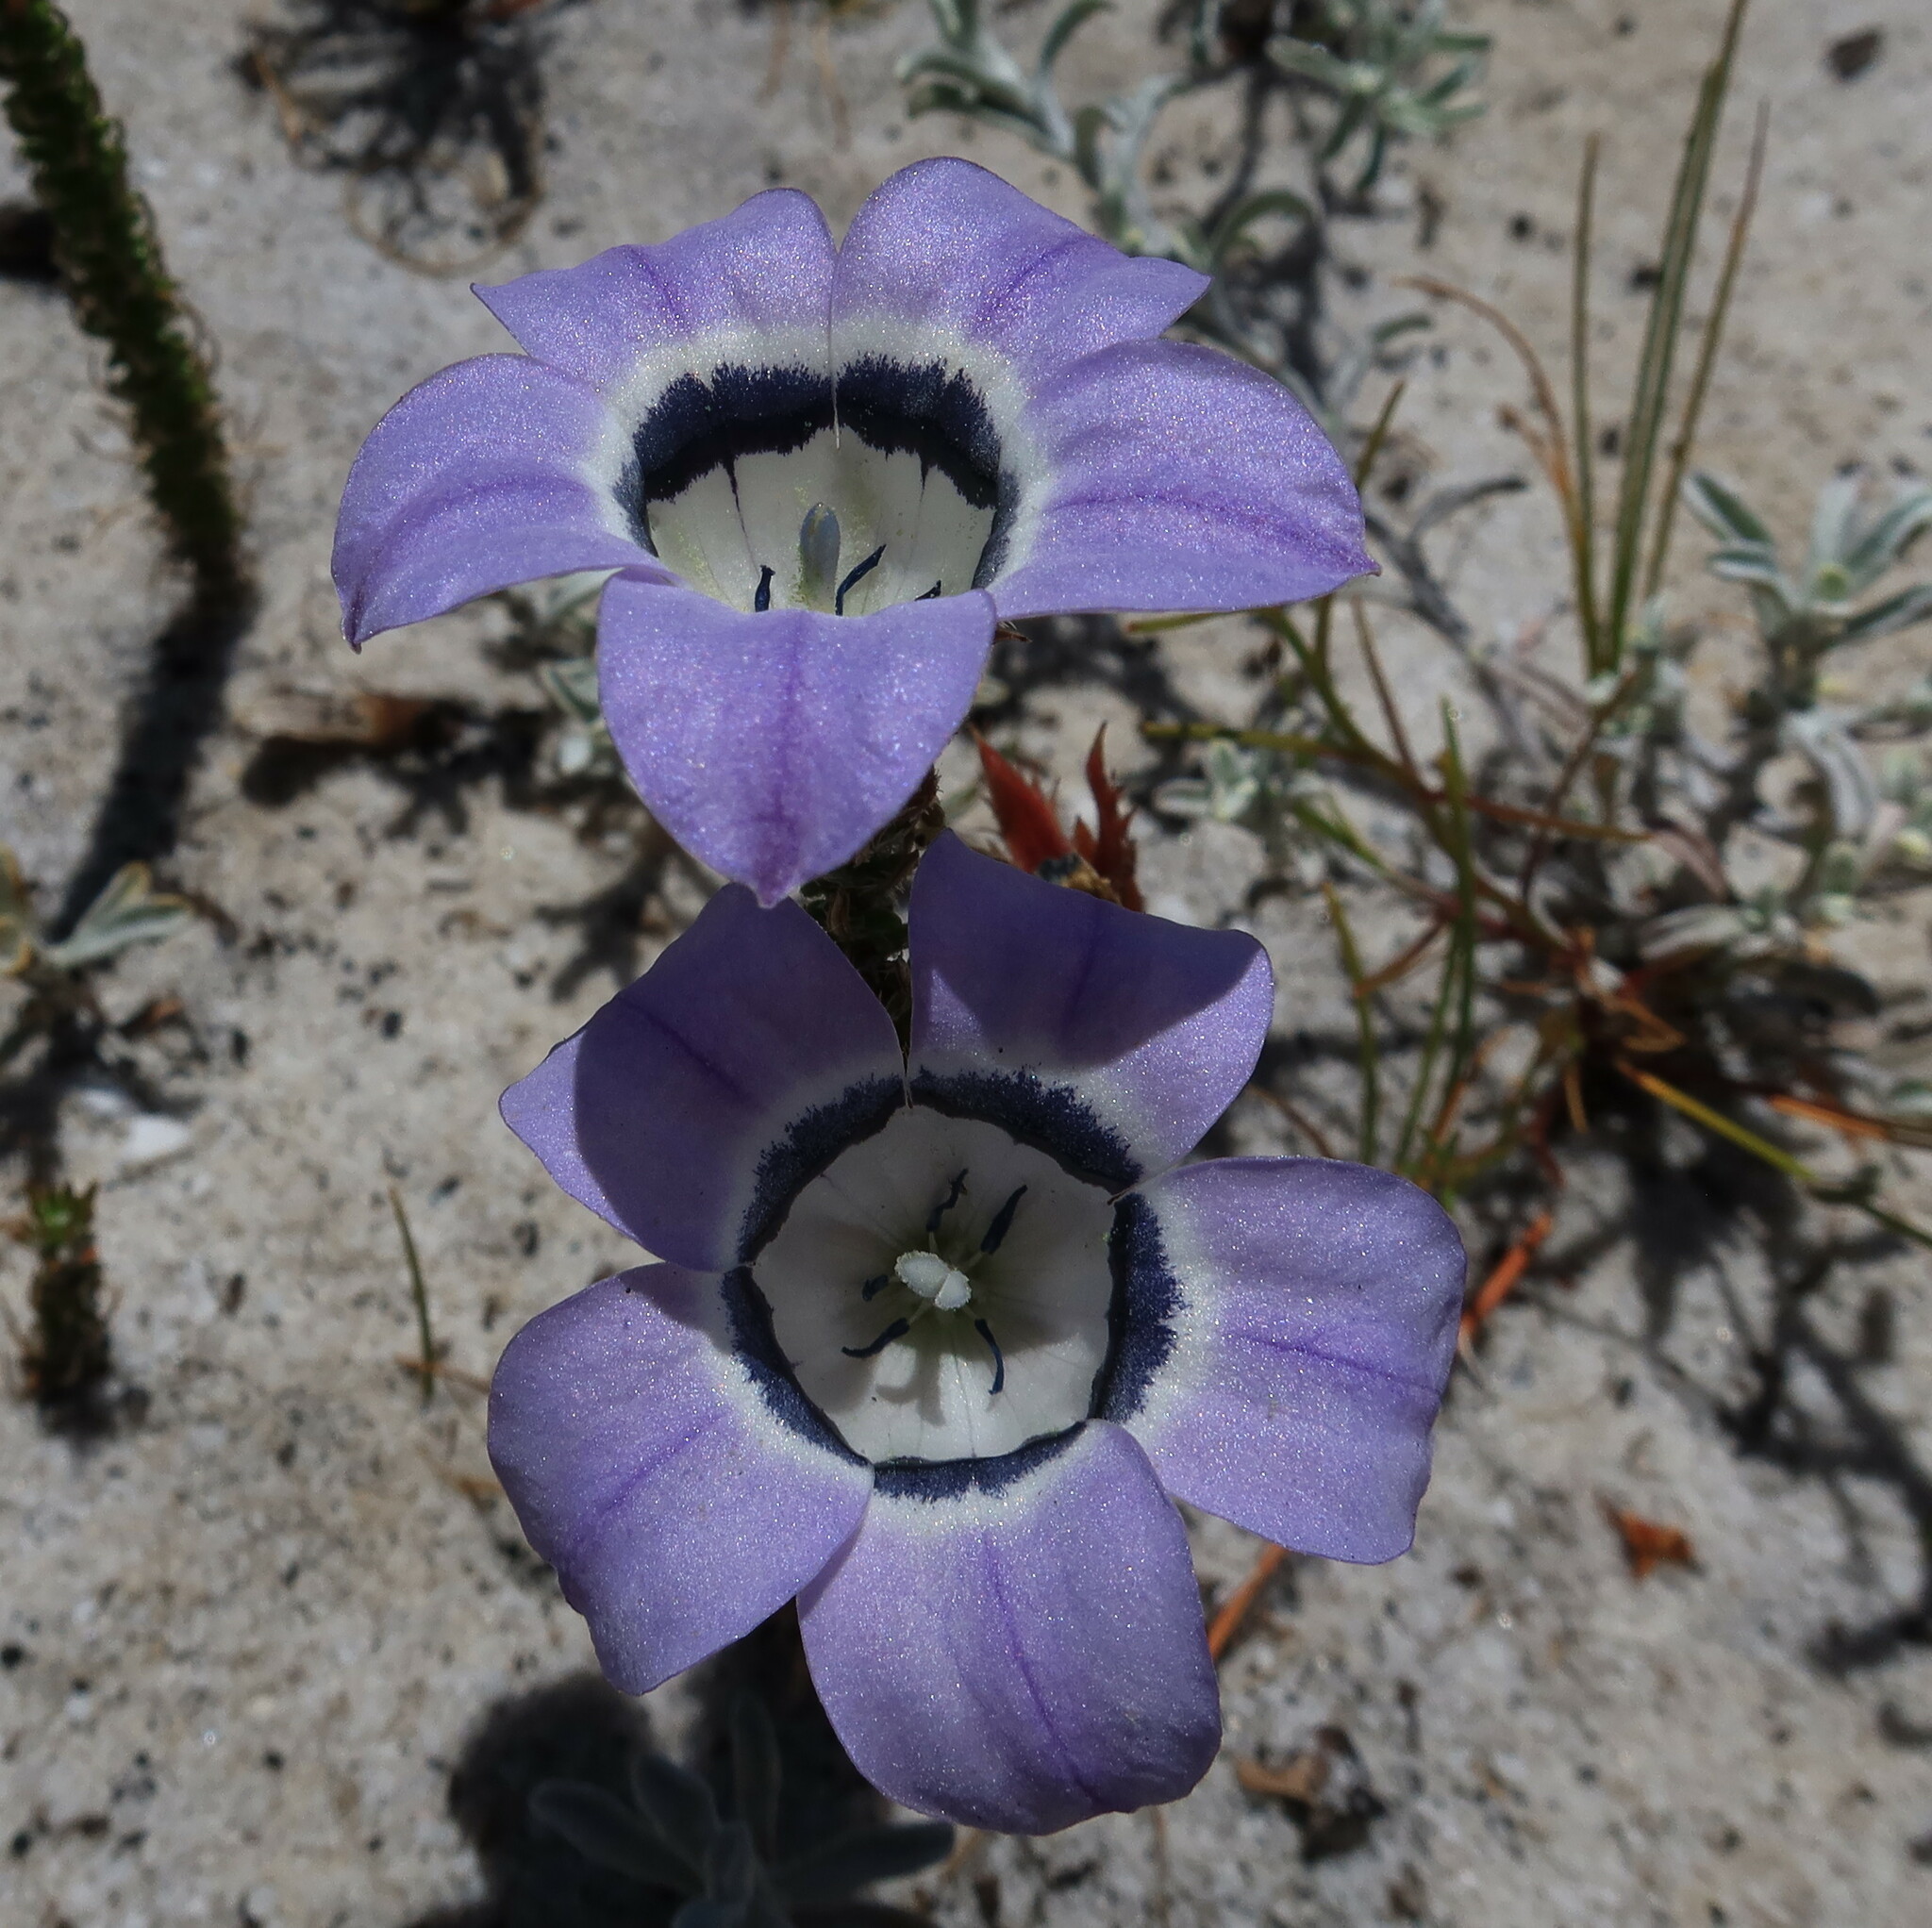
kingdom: Plantae
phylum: Tracheophyta
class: Magnoliopsida
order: Asterales
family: Campanulaceae
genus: Roella
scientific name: Roella ciliata
